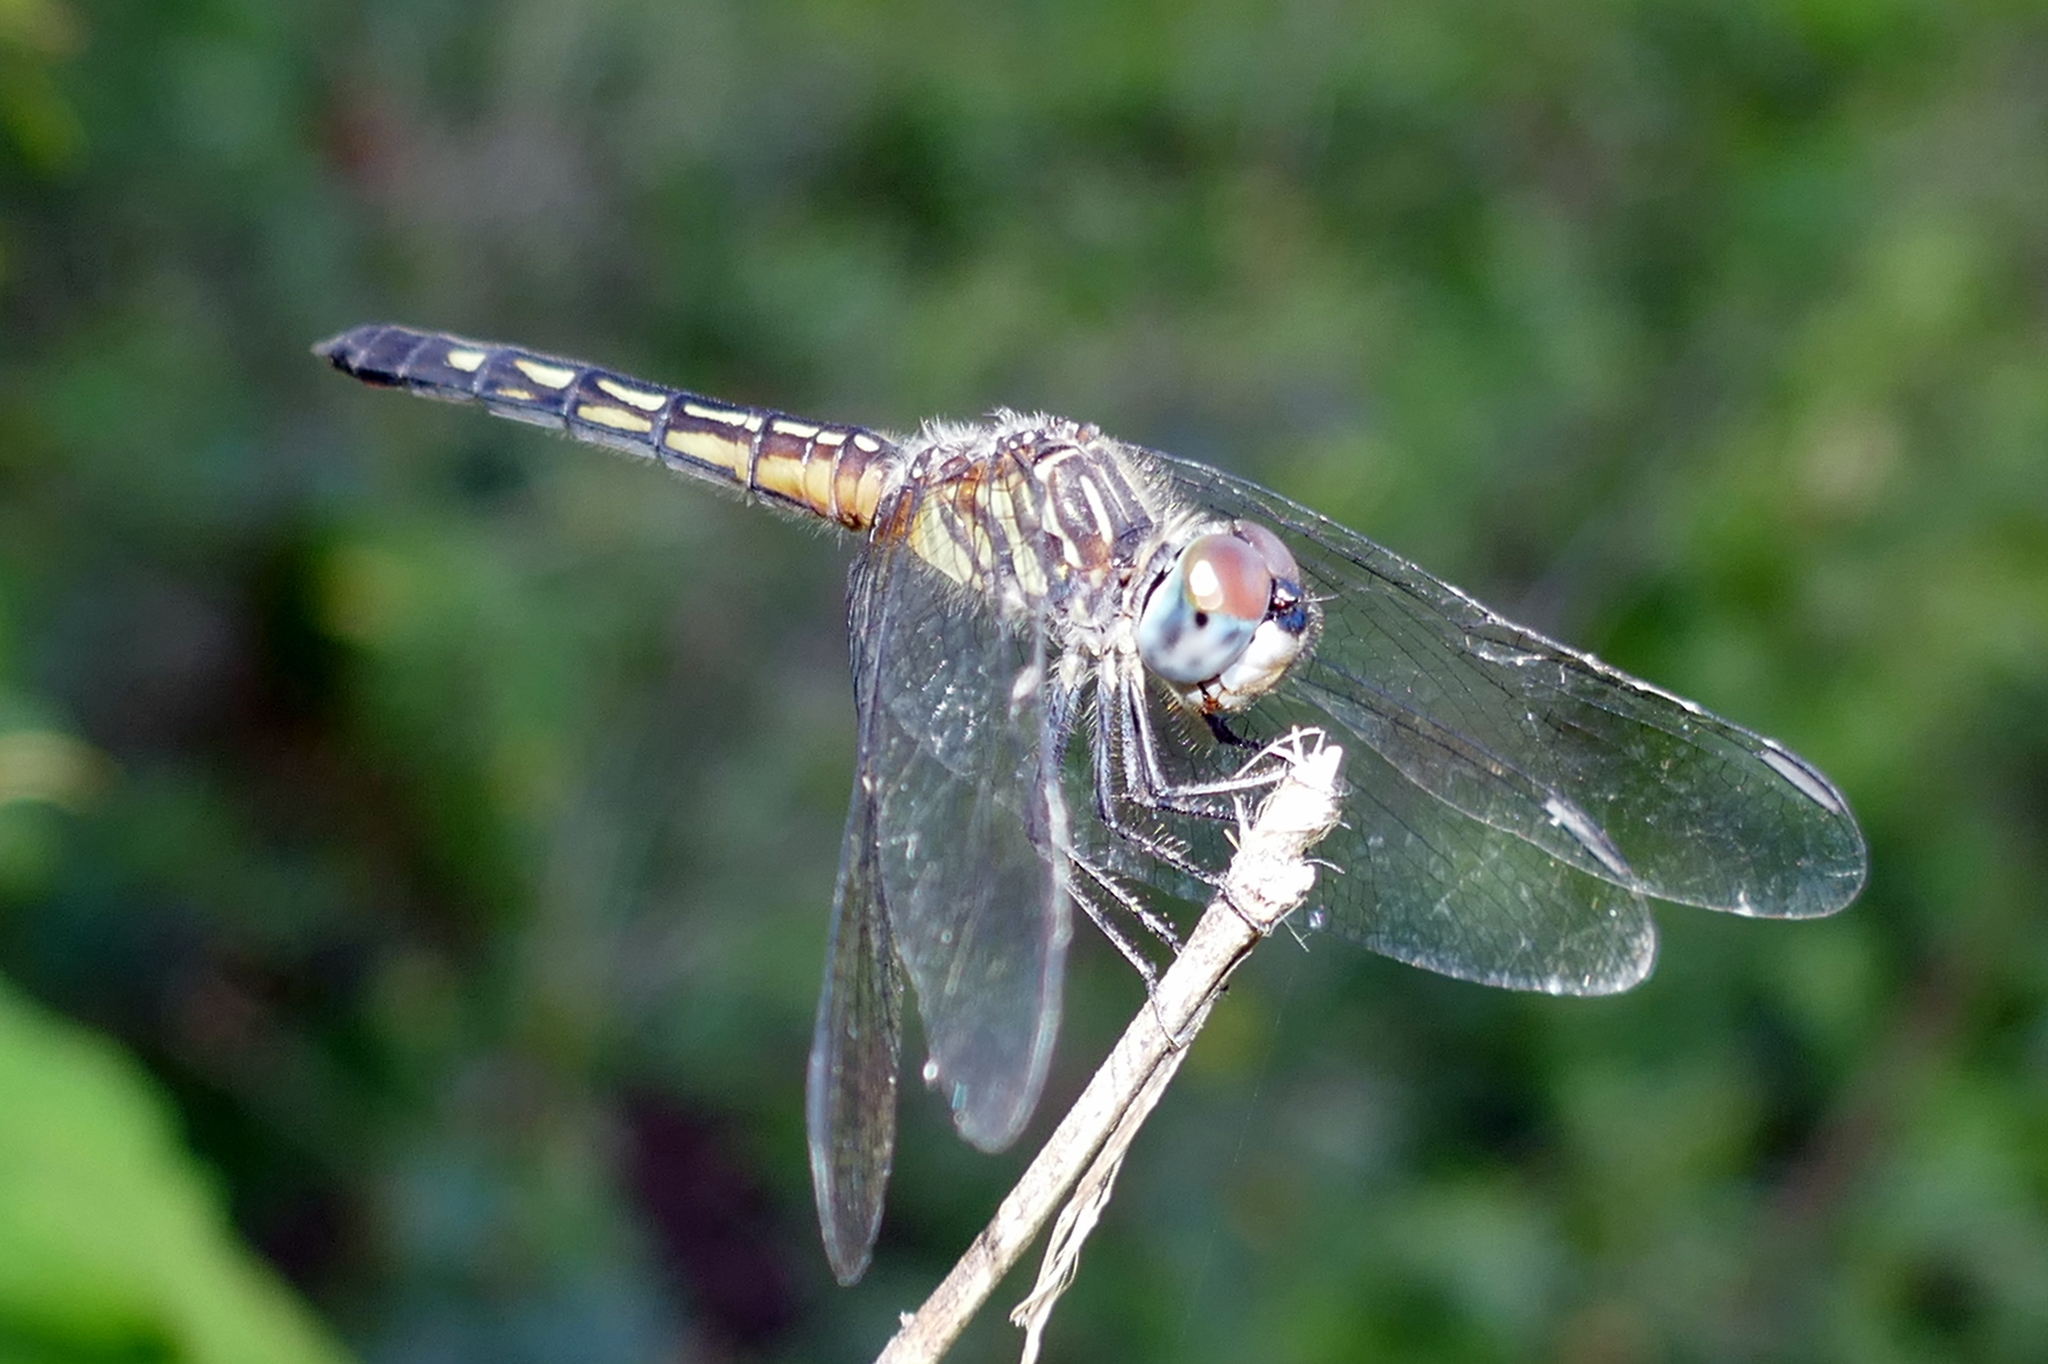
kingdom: Animalia
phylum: Arthropoda
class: Insecta
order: Odonata
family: Libellulidae
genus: Pachydiplax
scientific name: Pachydiplax longipennis
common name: Blue dasher
